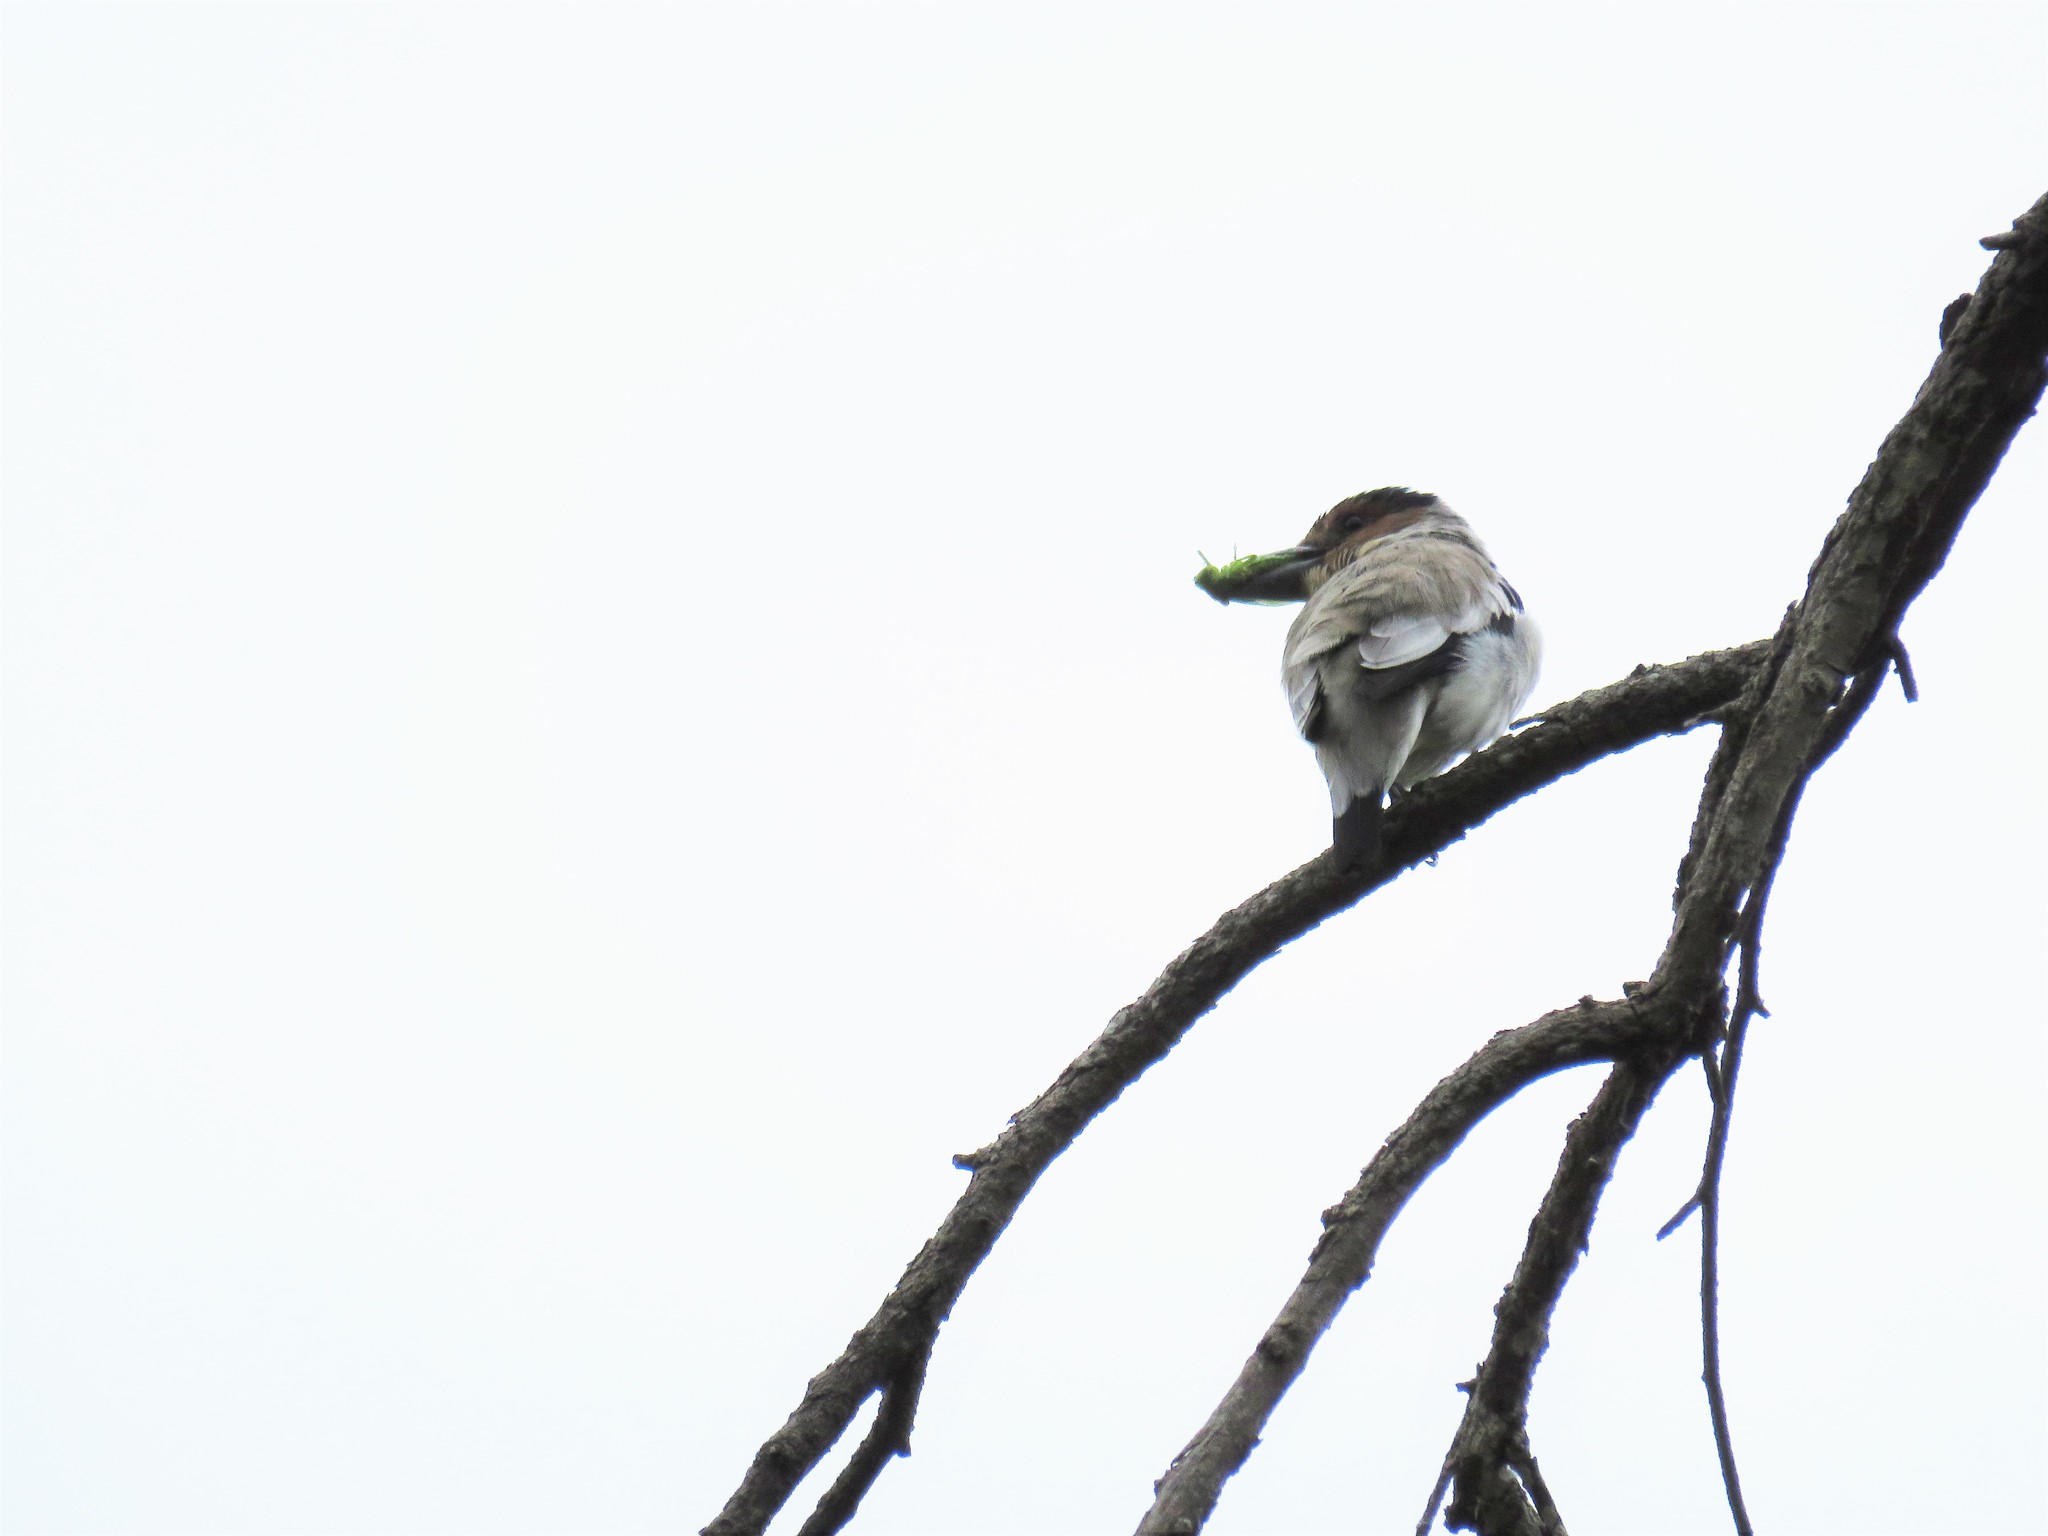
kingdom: Animalia
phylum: Chordata
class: Aves
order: Passeriformes
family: Cotingidae
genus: Tityra
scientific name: Tityra inquisitor
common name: Black-crowned tityra
